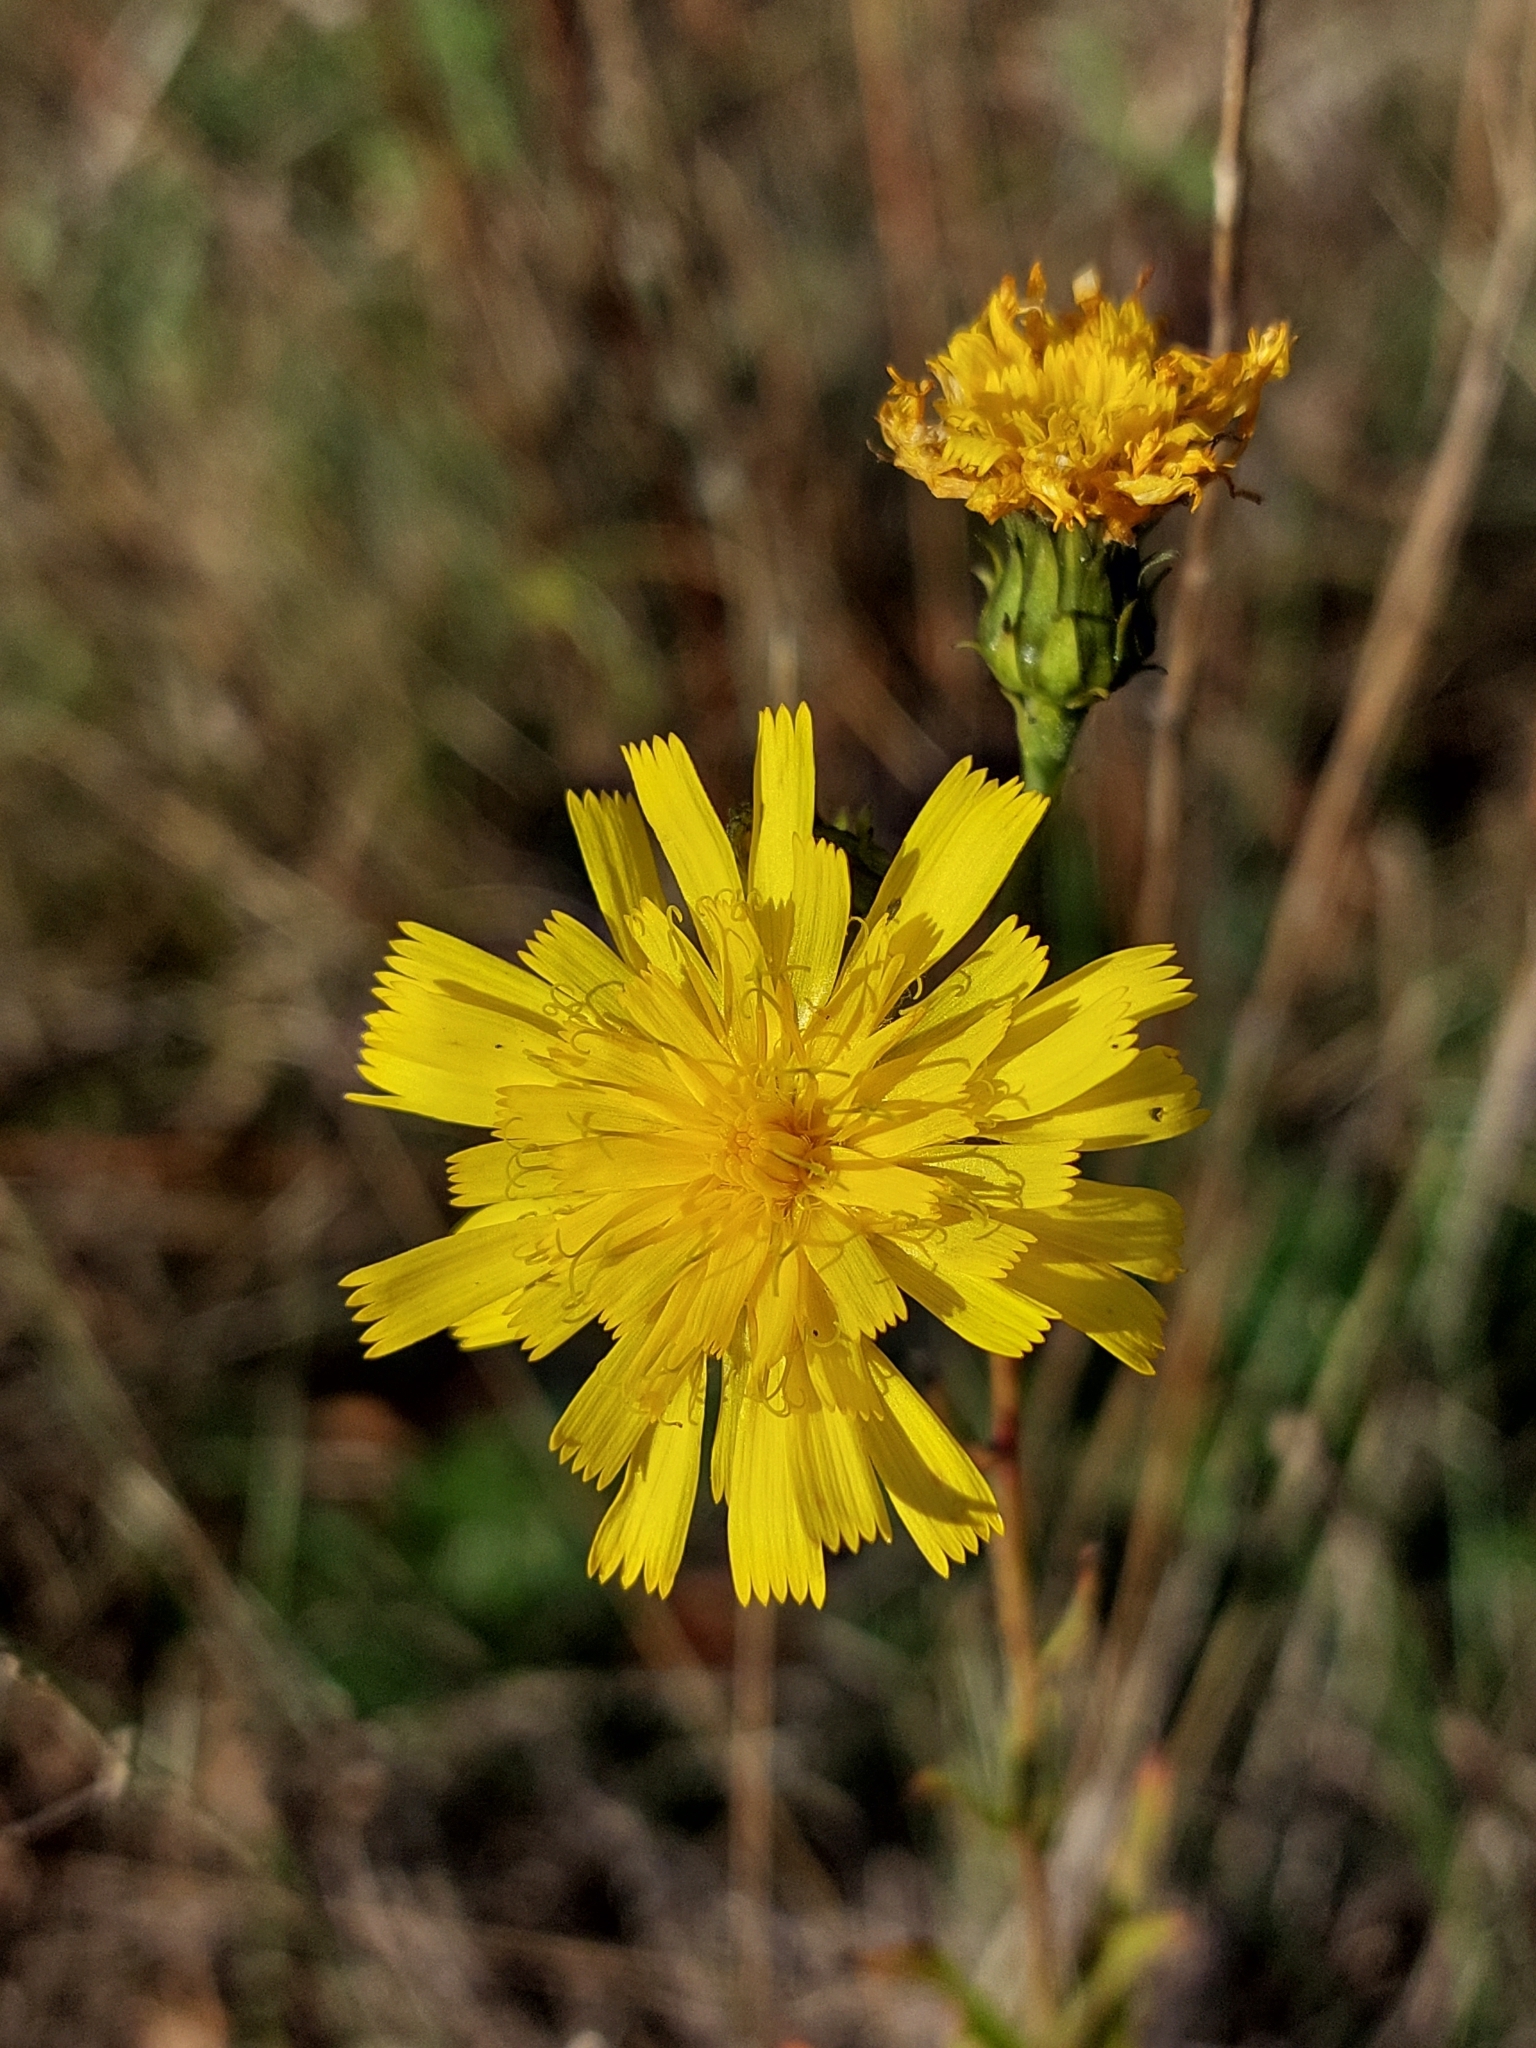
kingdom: Plantae
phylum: Tracheophyta
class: Magnoliopsida
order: Asterales
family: Asteraceae
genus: Hieracium
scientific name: Hieracium umbellatum
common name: Northern hawkweed
